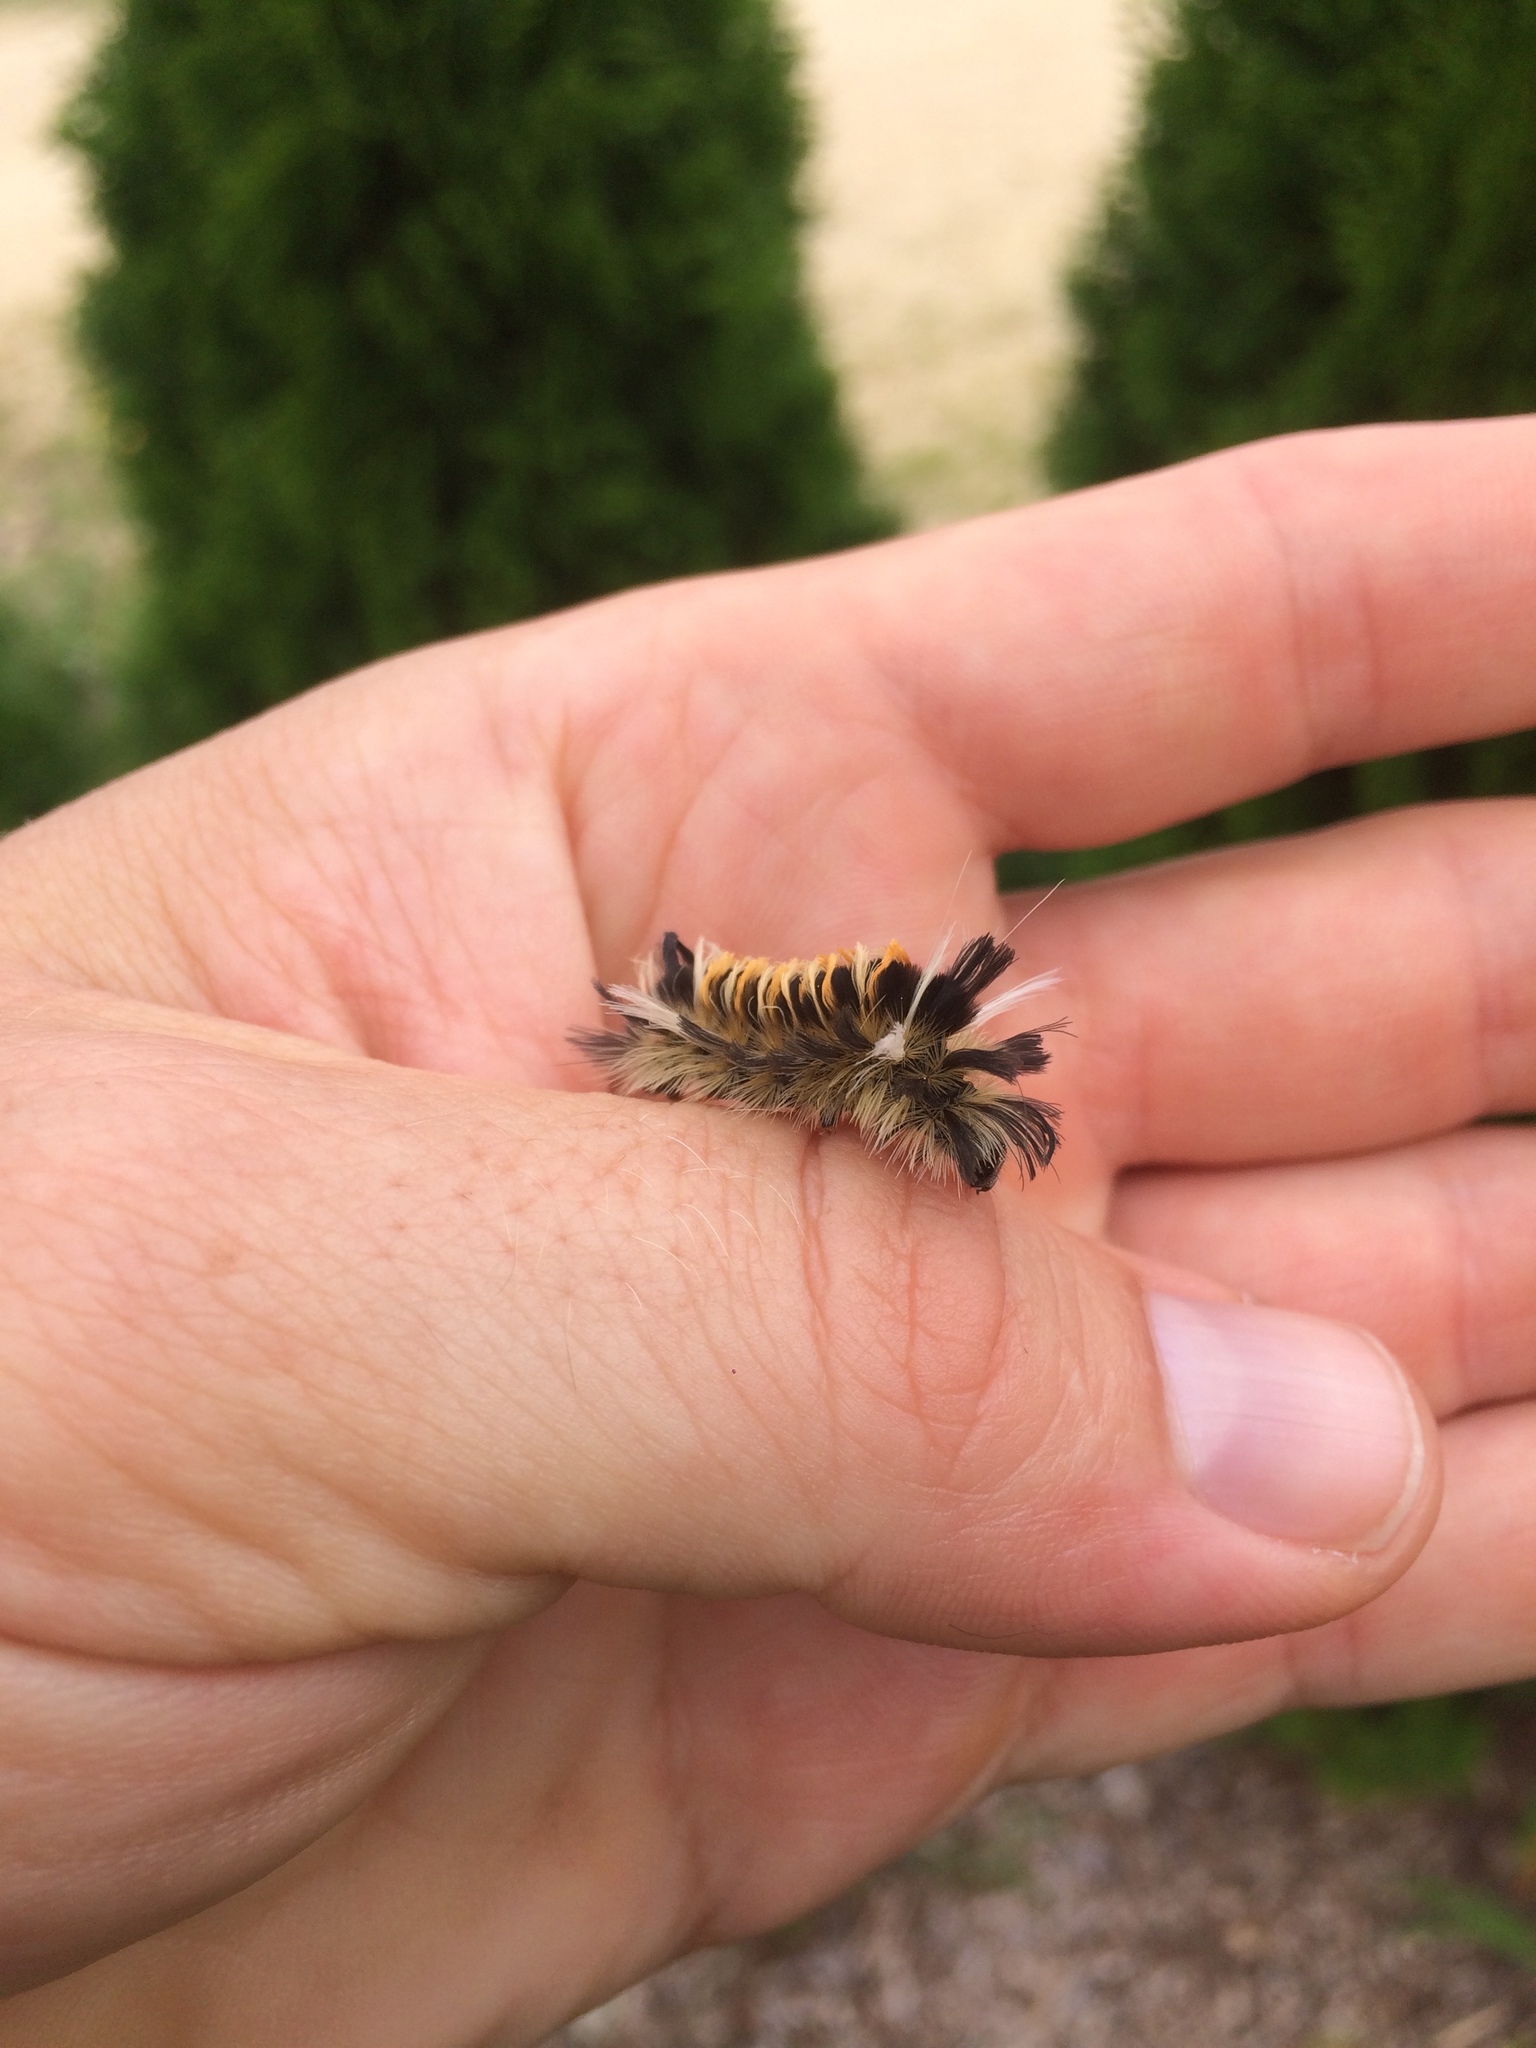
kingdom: Animalia
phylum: Arthropoda
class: Insecta
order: Lepidoptera
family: Erebidae
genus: Euchaetes
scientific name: Euchaetes egle
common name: Milkweed tussock moth
